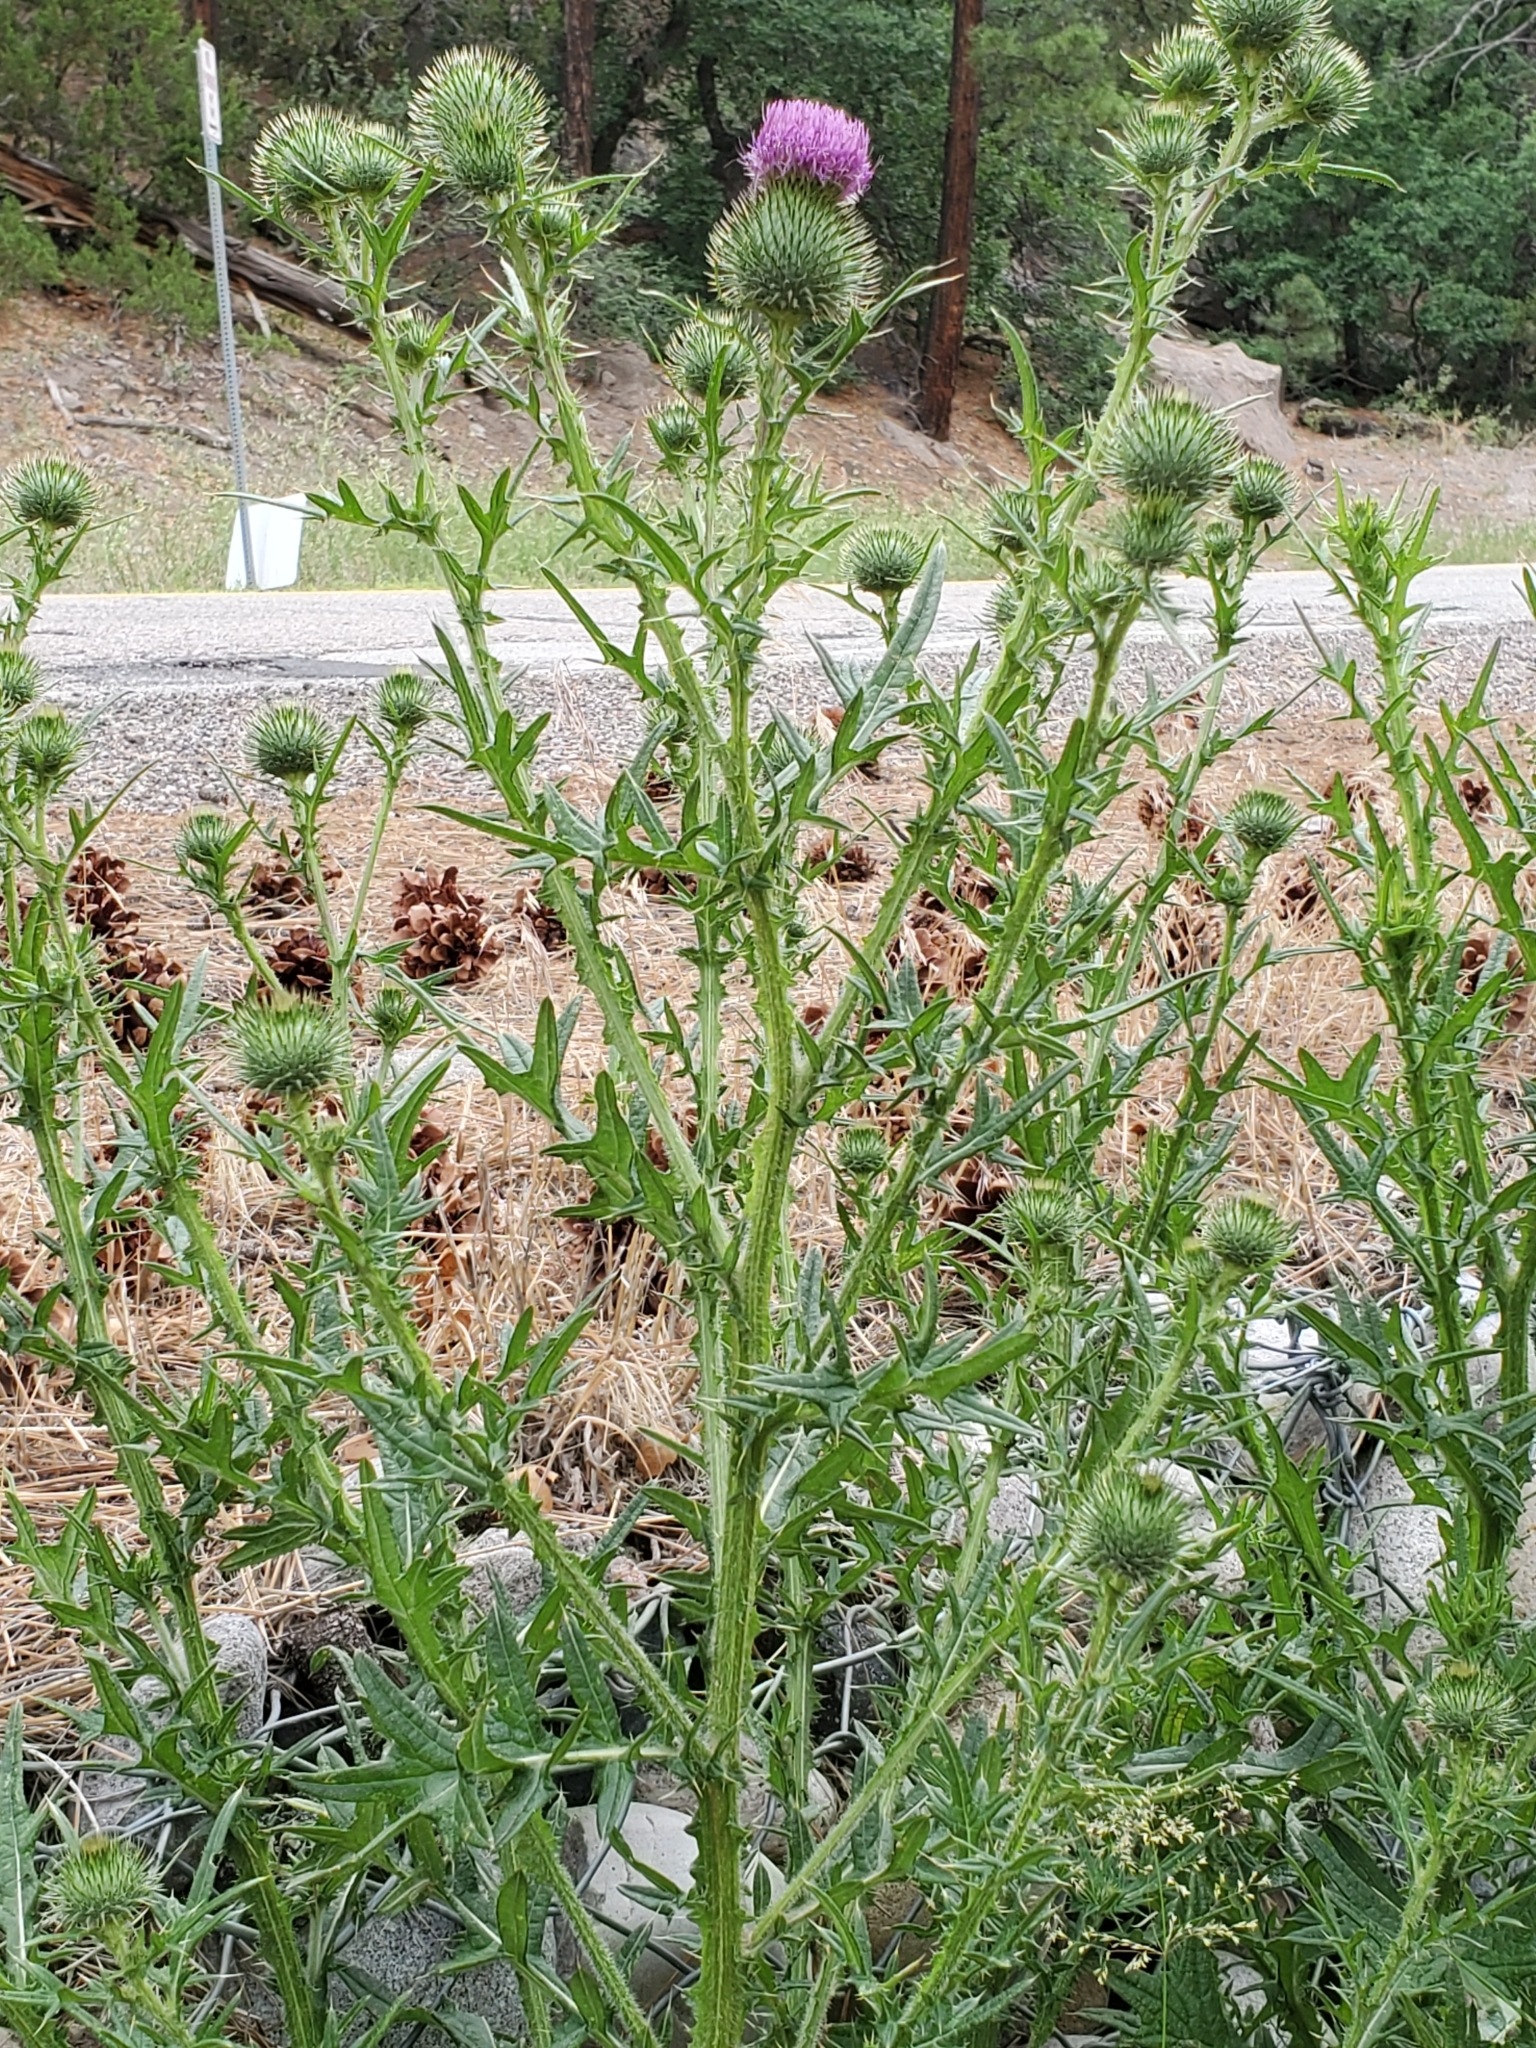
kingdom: Plantae
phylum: Tracheophyta
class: Magnoliopsida
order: Asterales
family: Asteraceae
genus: Cirsium
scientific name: Cirsium vulgare
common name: Bull thistle
